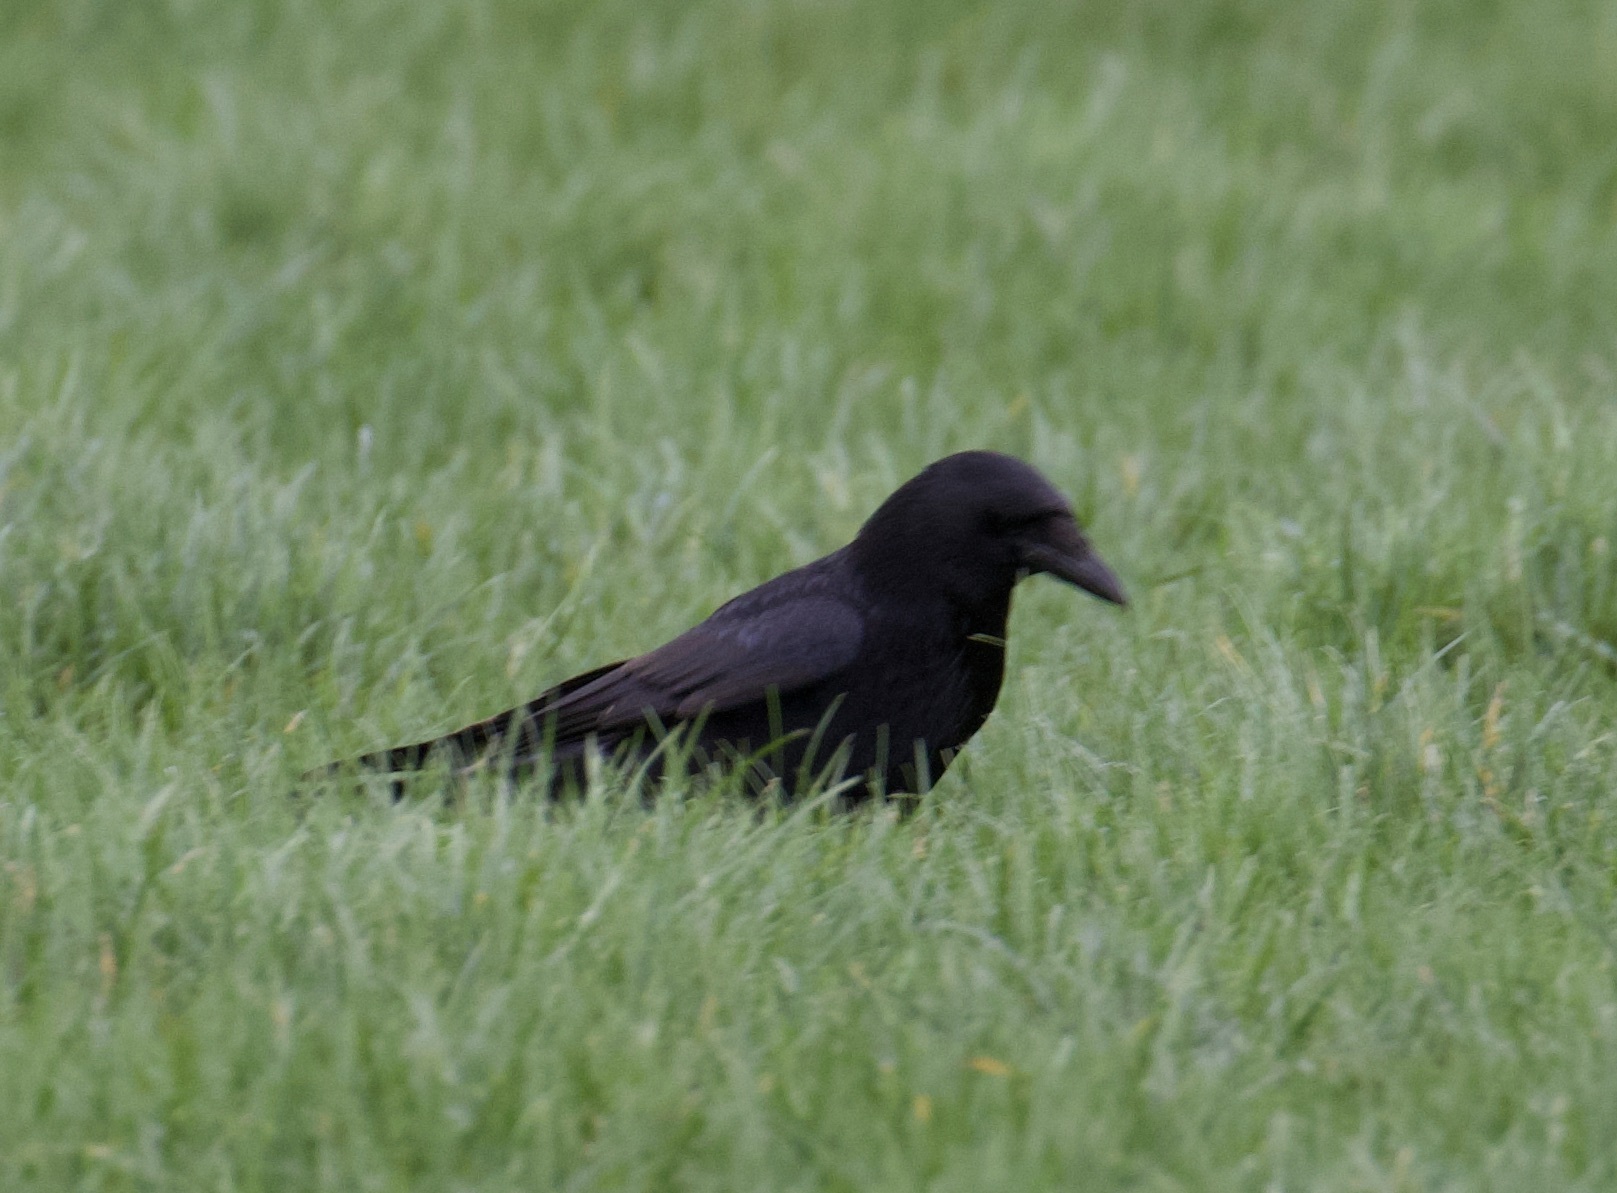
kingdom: Animalia
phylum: Chordata
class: Aves
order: Passeriformes
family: Corvidae
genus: Corvus
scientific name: Corvus corone
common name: Carrion crow
